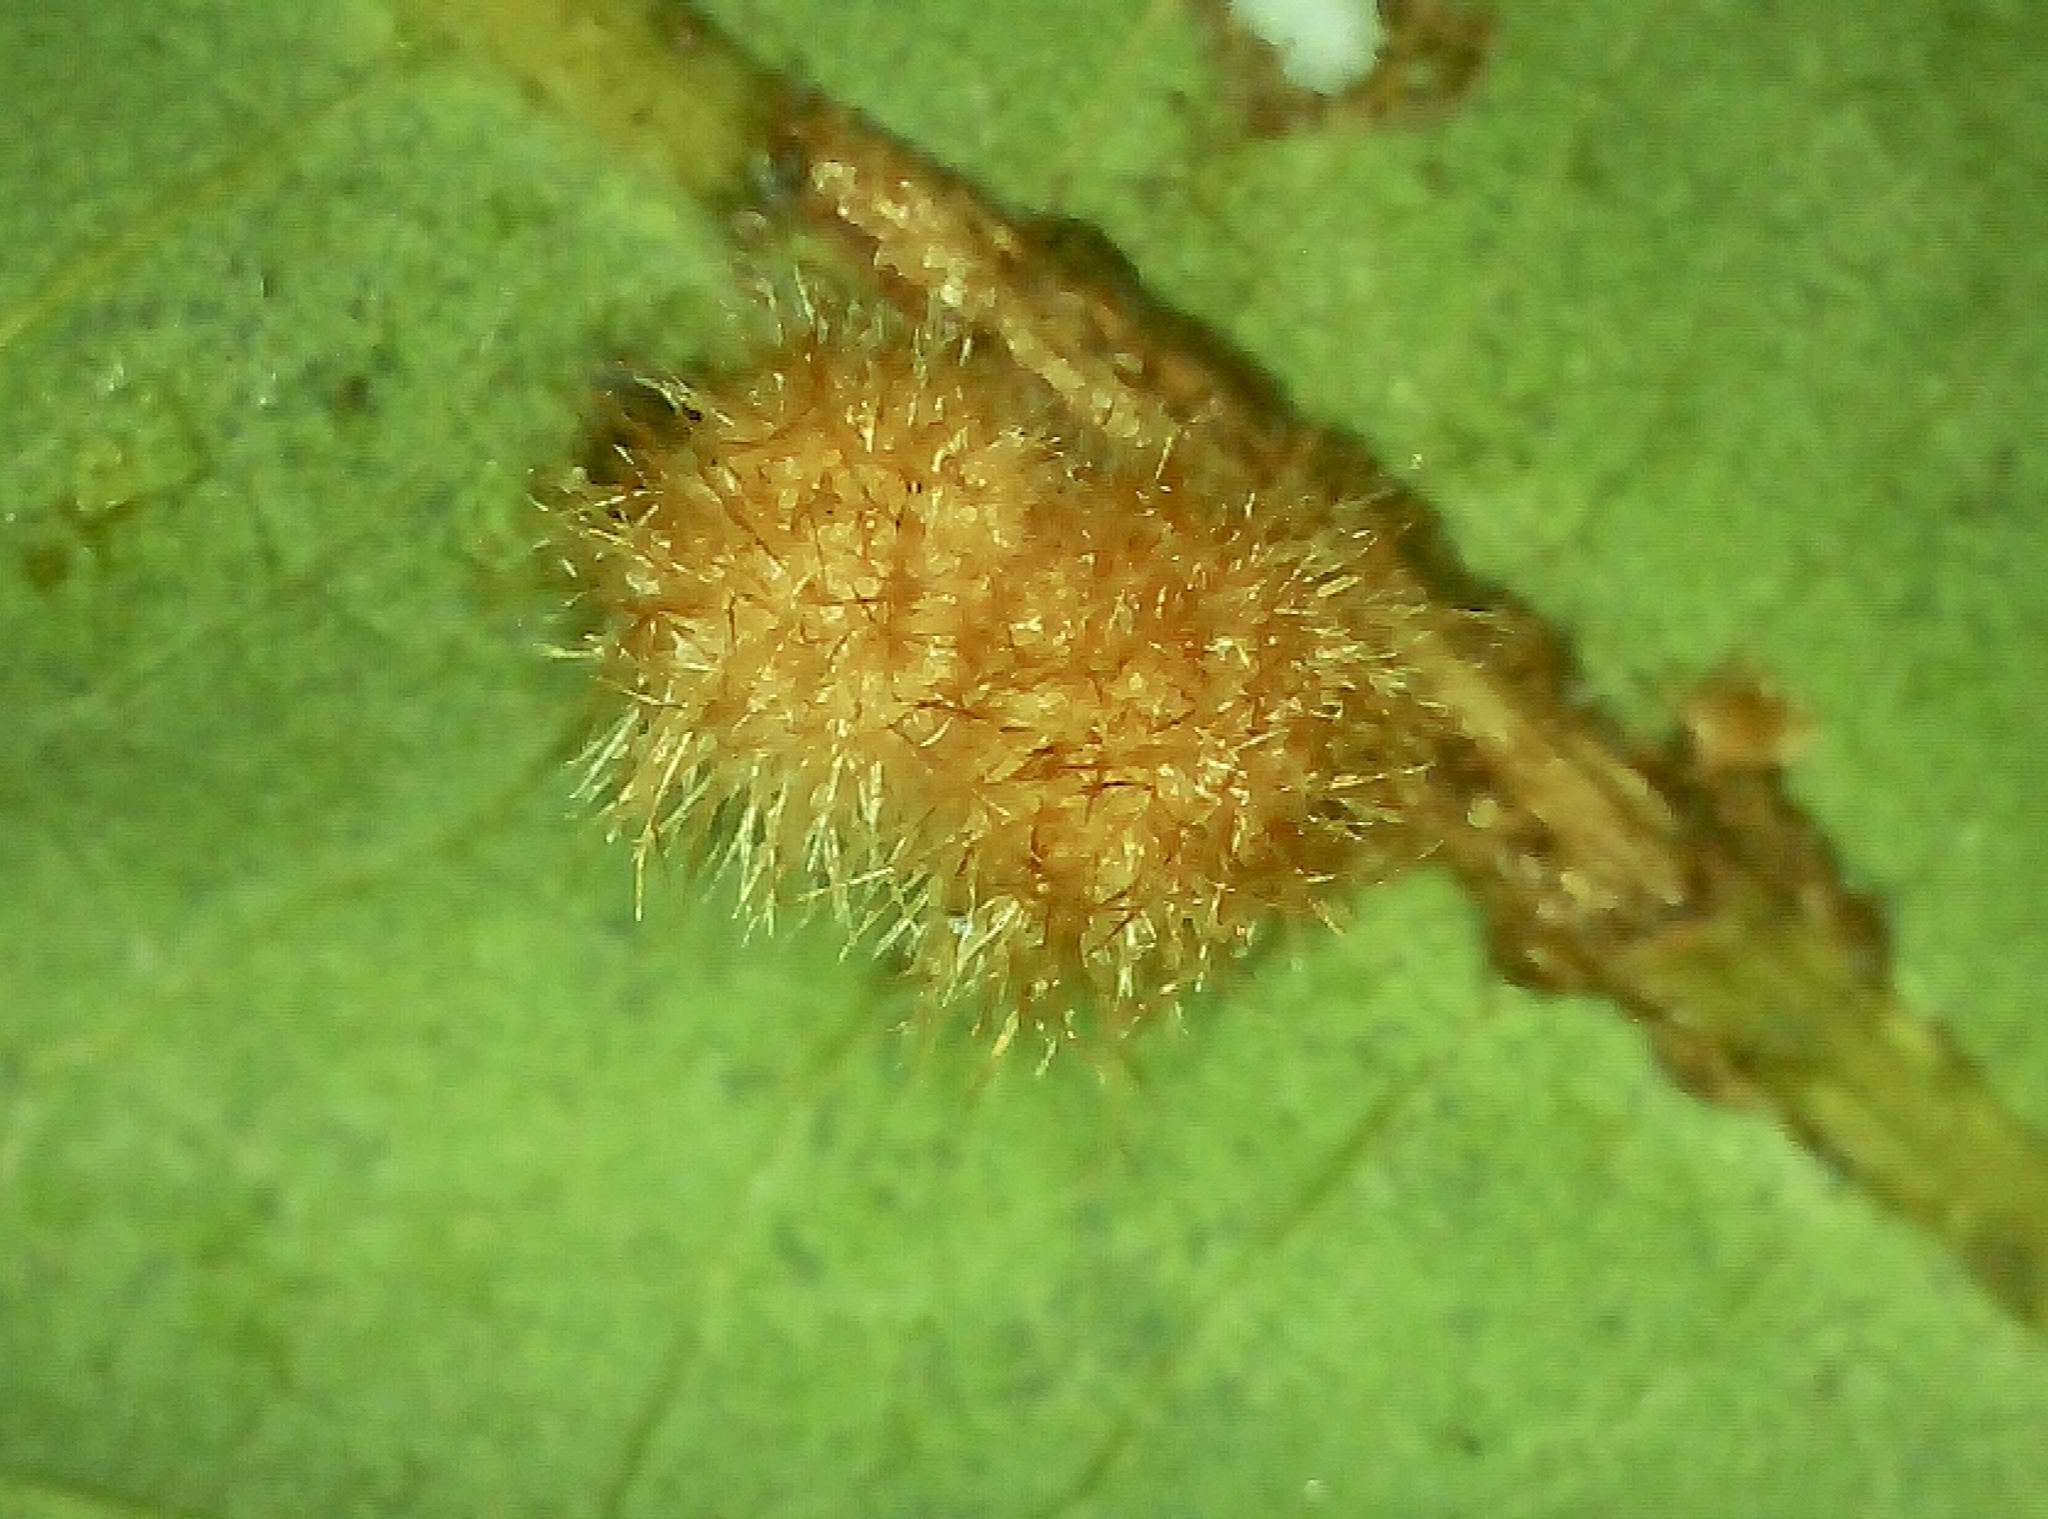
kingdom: Animalia
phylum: Arthropoda
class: Insecta
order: Hymenoptera
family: Cynipidae
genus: Andricus
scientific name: Andricus
